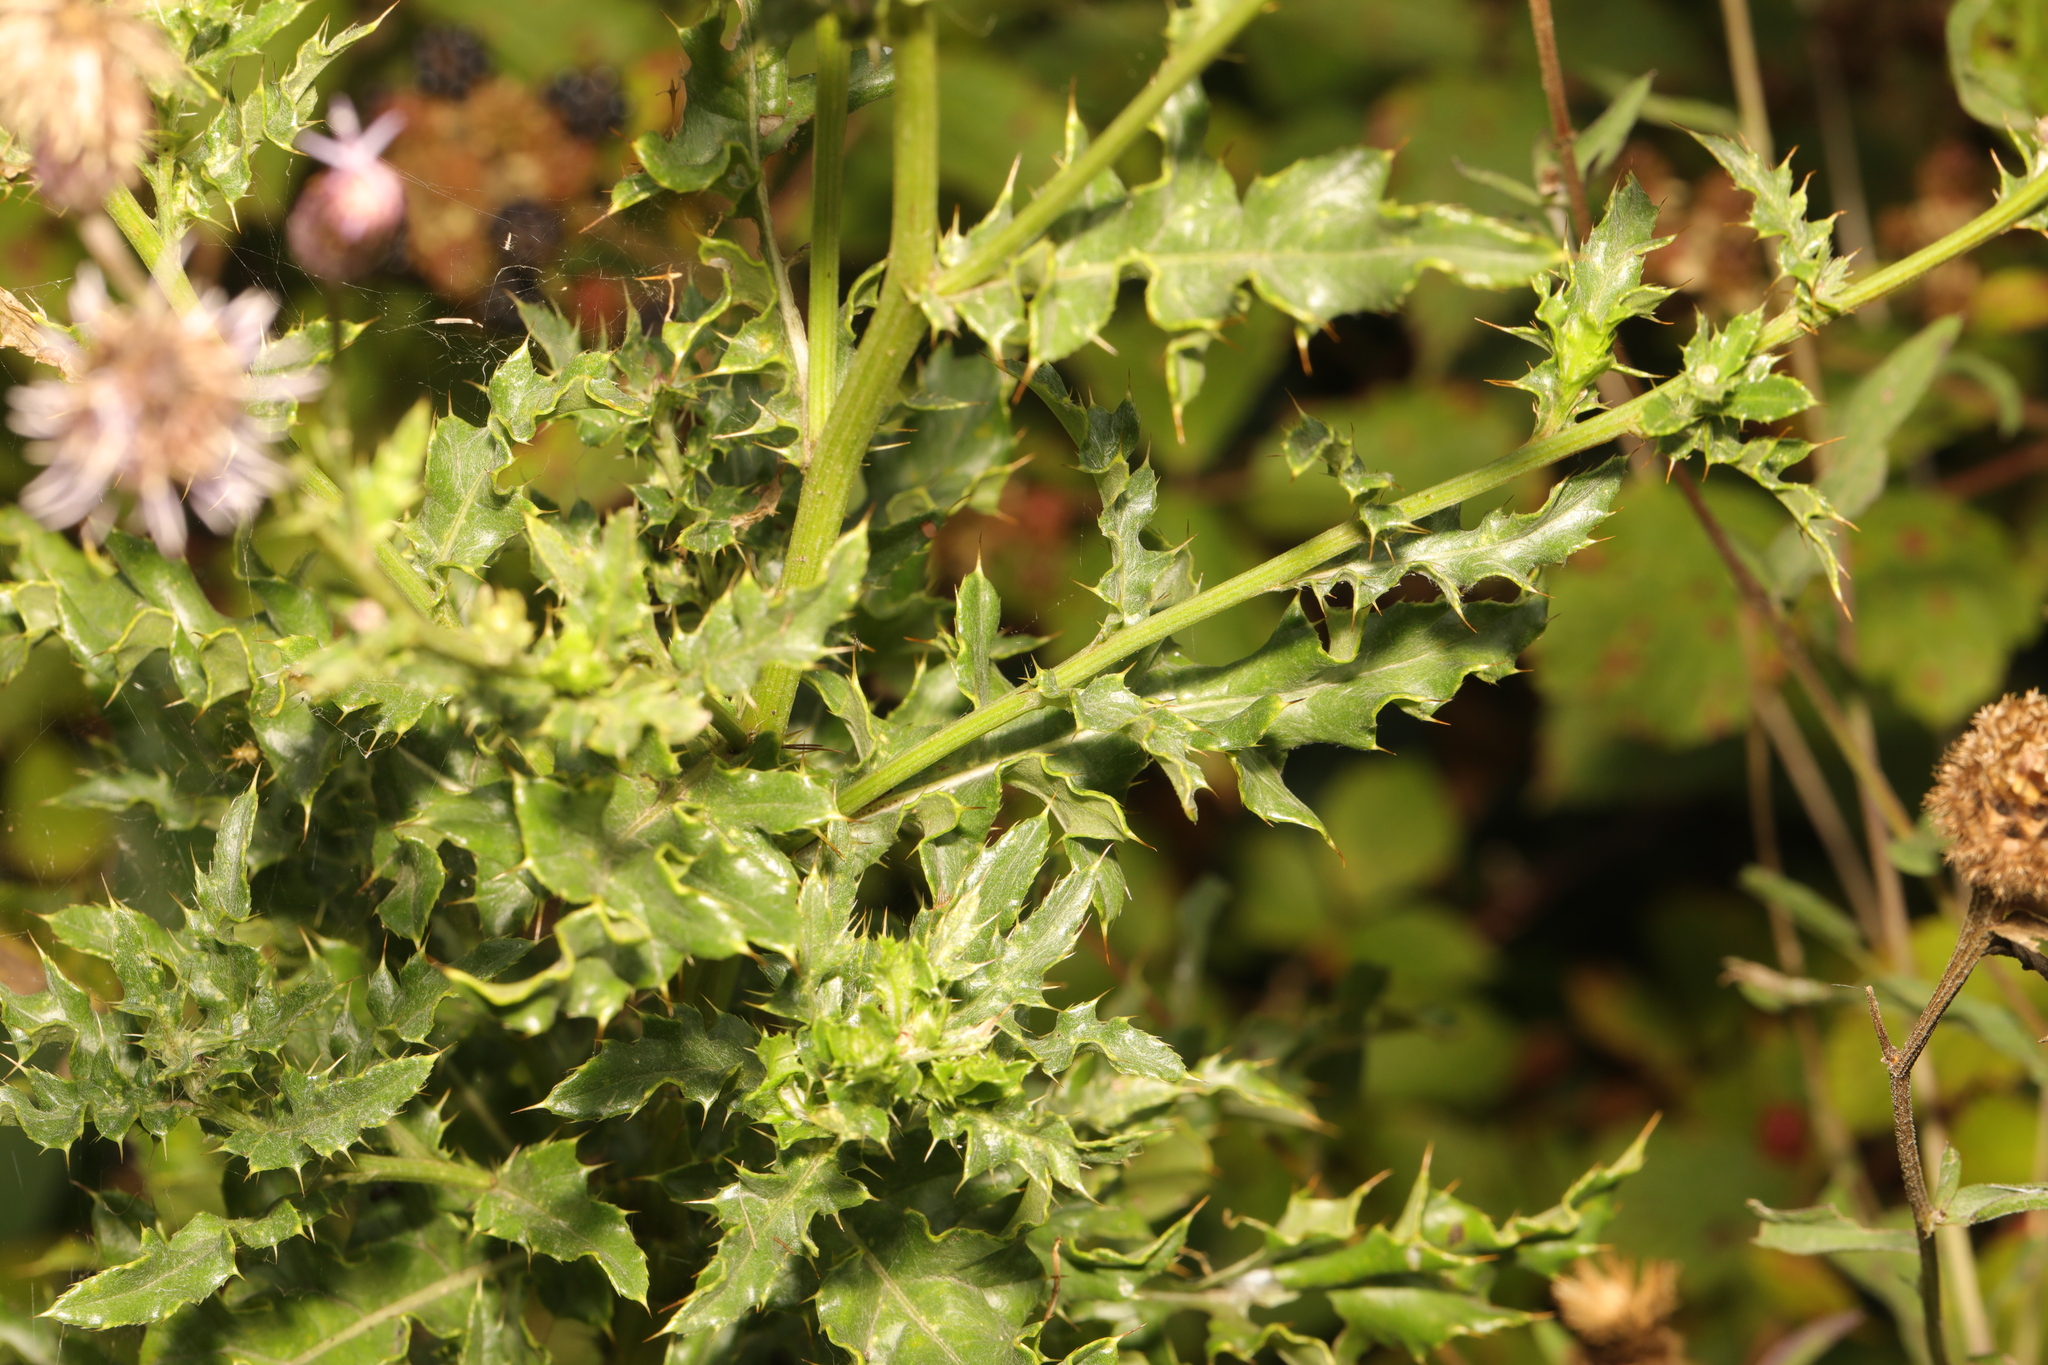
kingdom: Plantae
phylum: Tracheophyta
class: Magnoliopsida
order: Asterales
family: Asteraceae
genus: Cirsium
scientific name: Cirsium arvense
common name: Creeping thistle
